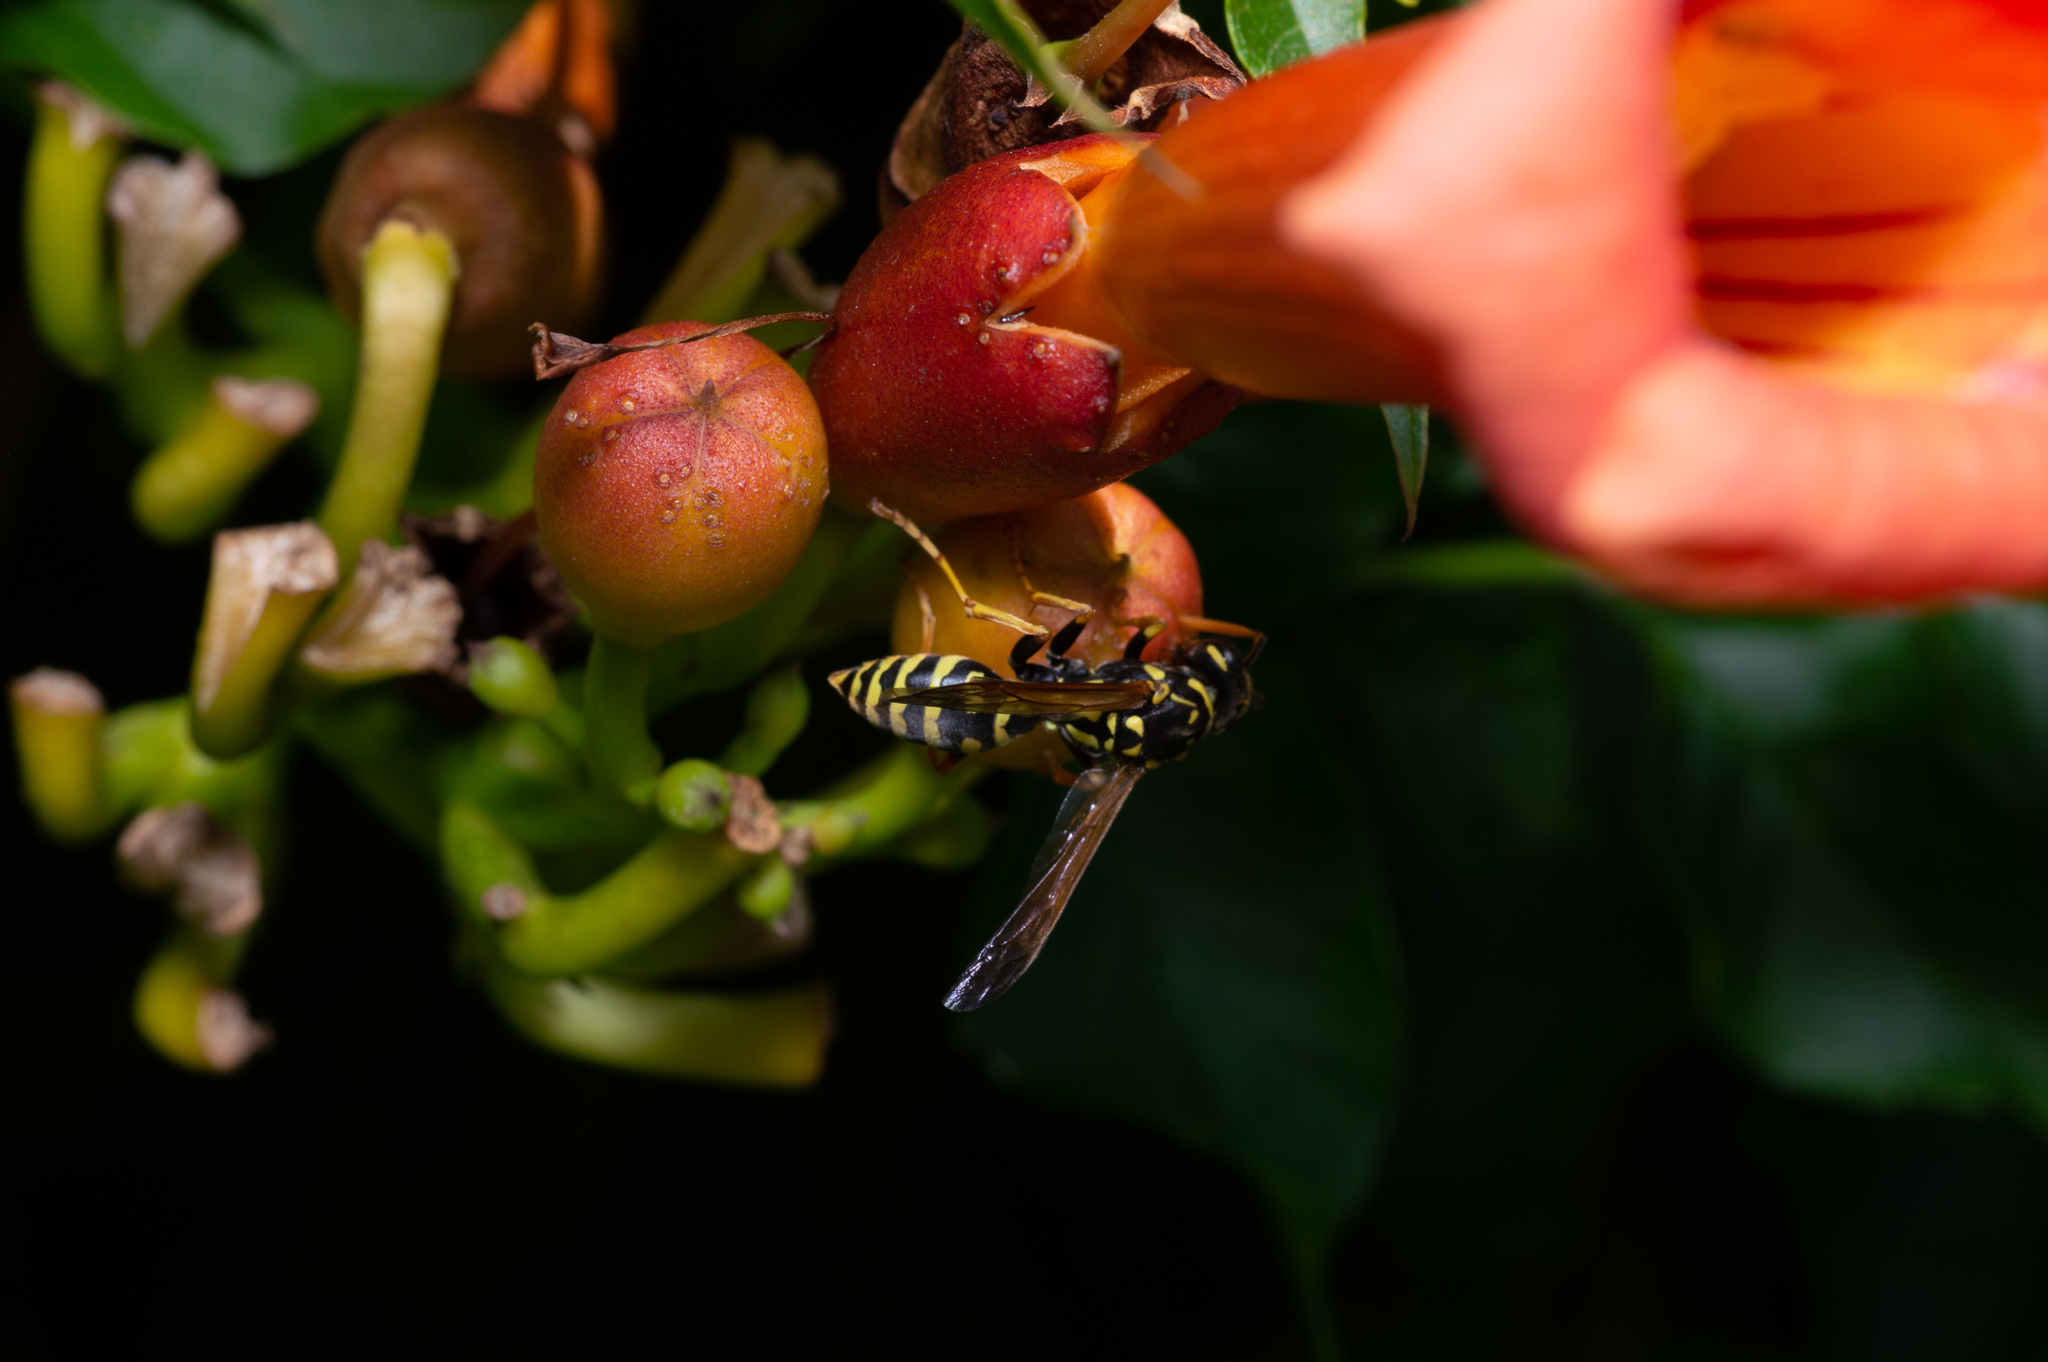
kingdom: Animalia
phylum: Arthropoda
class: Insecta
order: Hymenoptera
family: Eumenidae
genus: Polistes
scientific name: Polistes dominula
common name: Paper wasp
